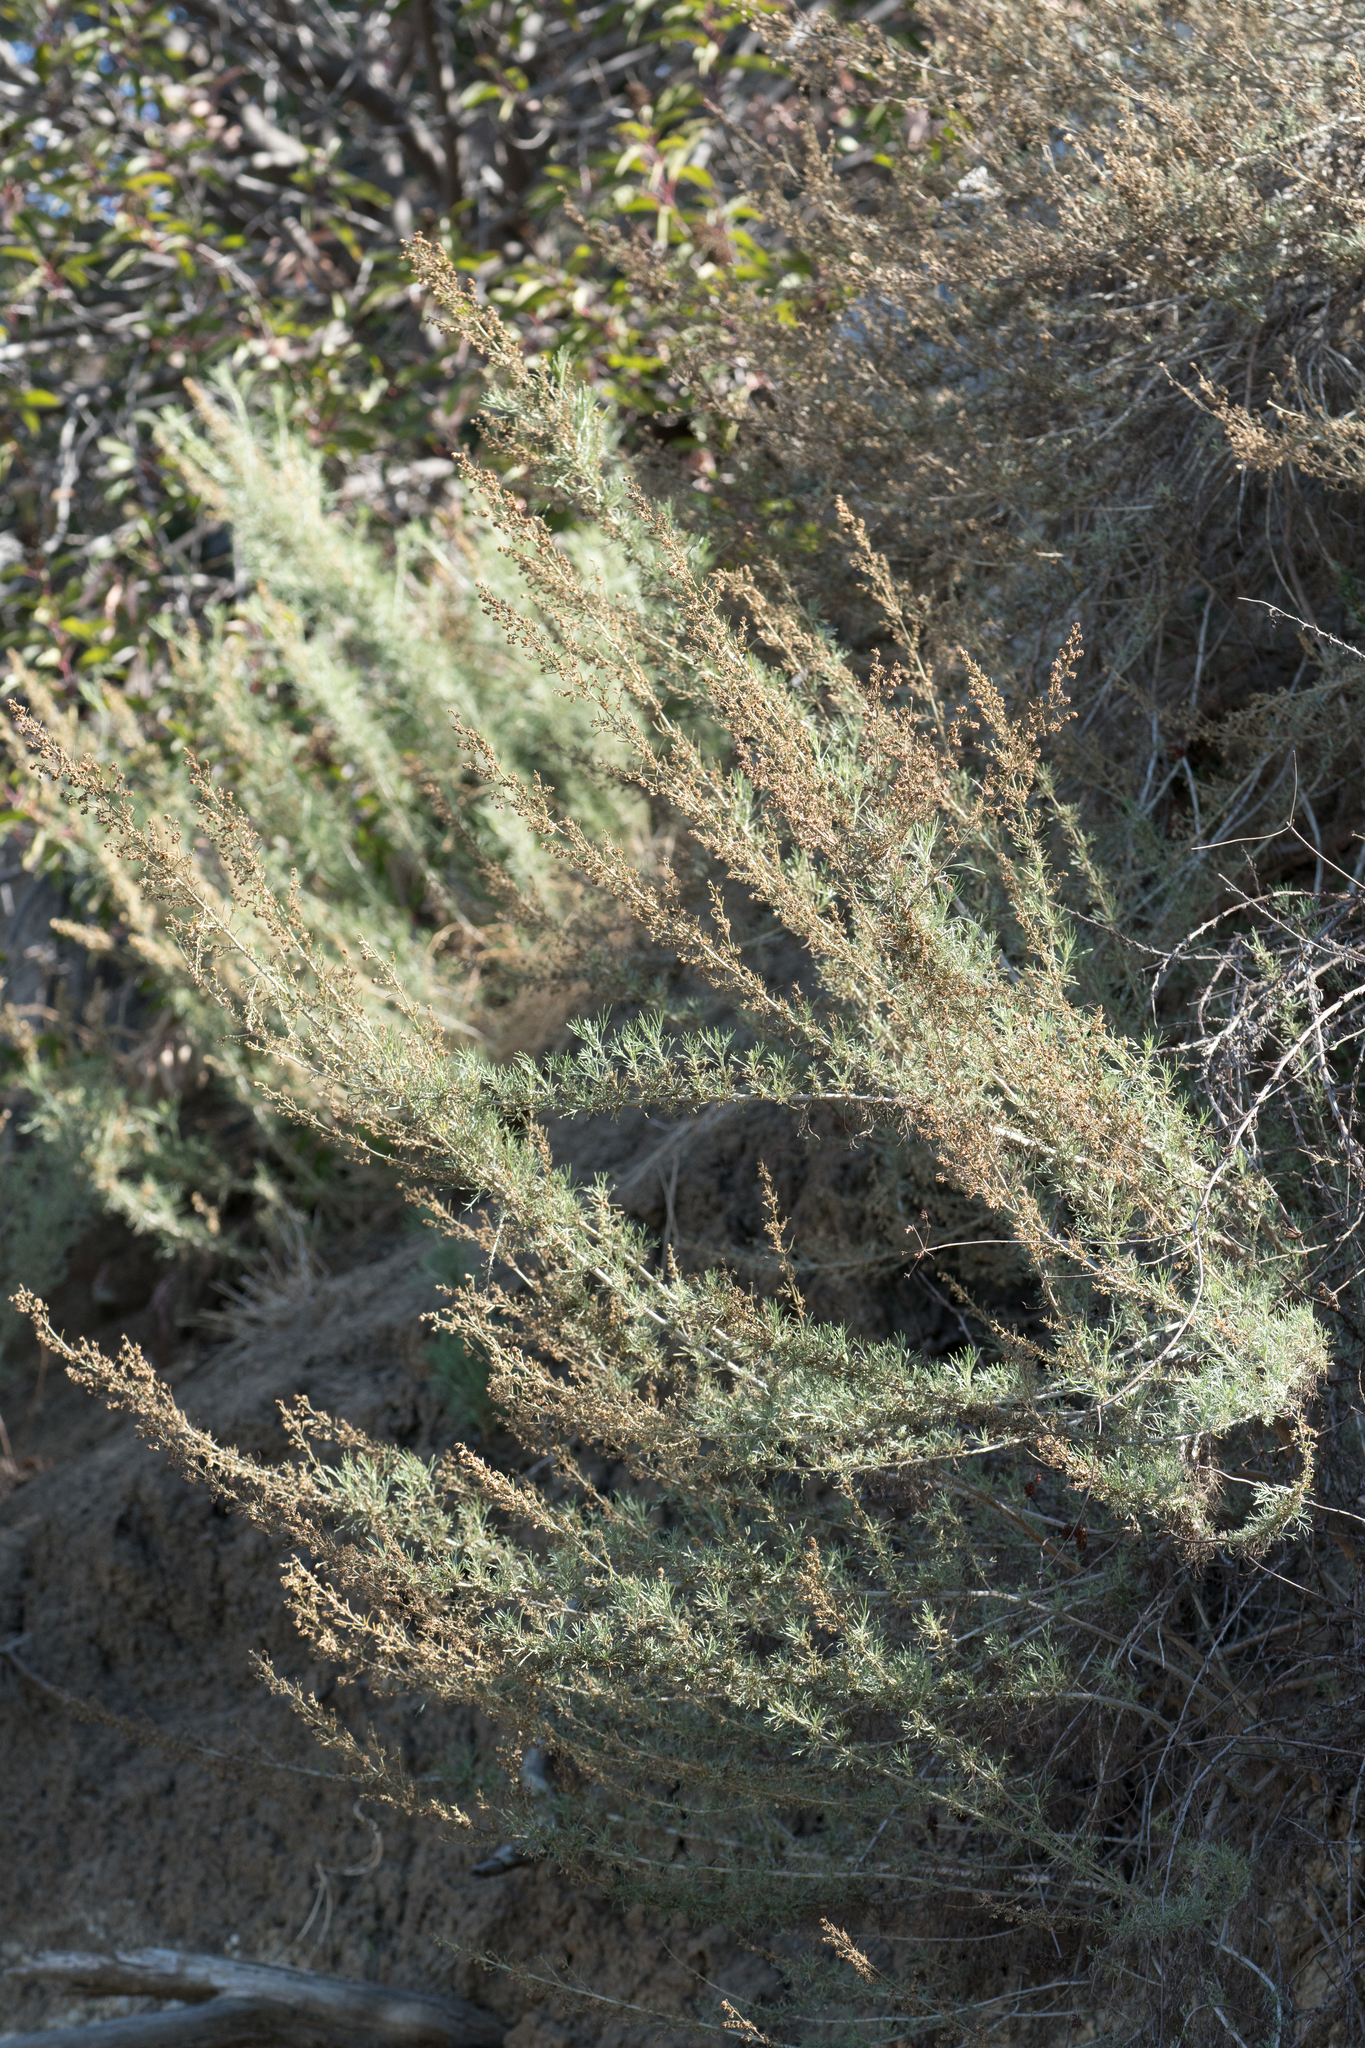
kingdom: Plantae
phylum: Tracheophyta
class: Magnoliopsida
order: Asterales
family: Asteraceae
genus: Artemisia
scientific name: Artemisia californica
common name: California sagebrush
